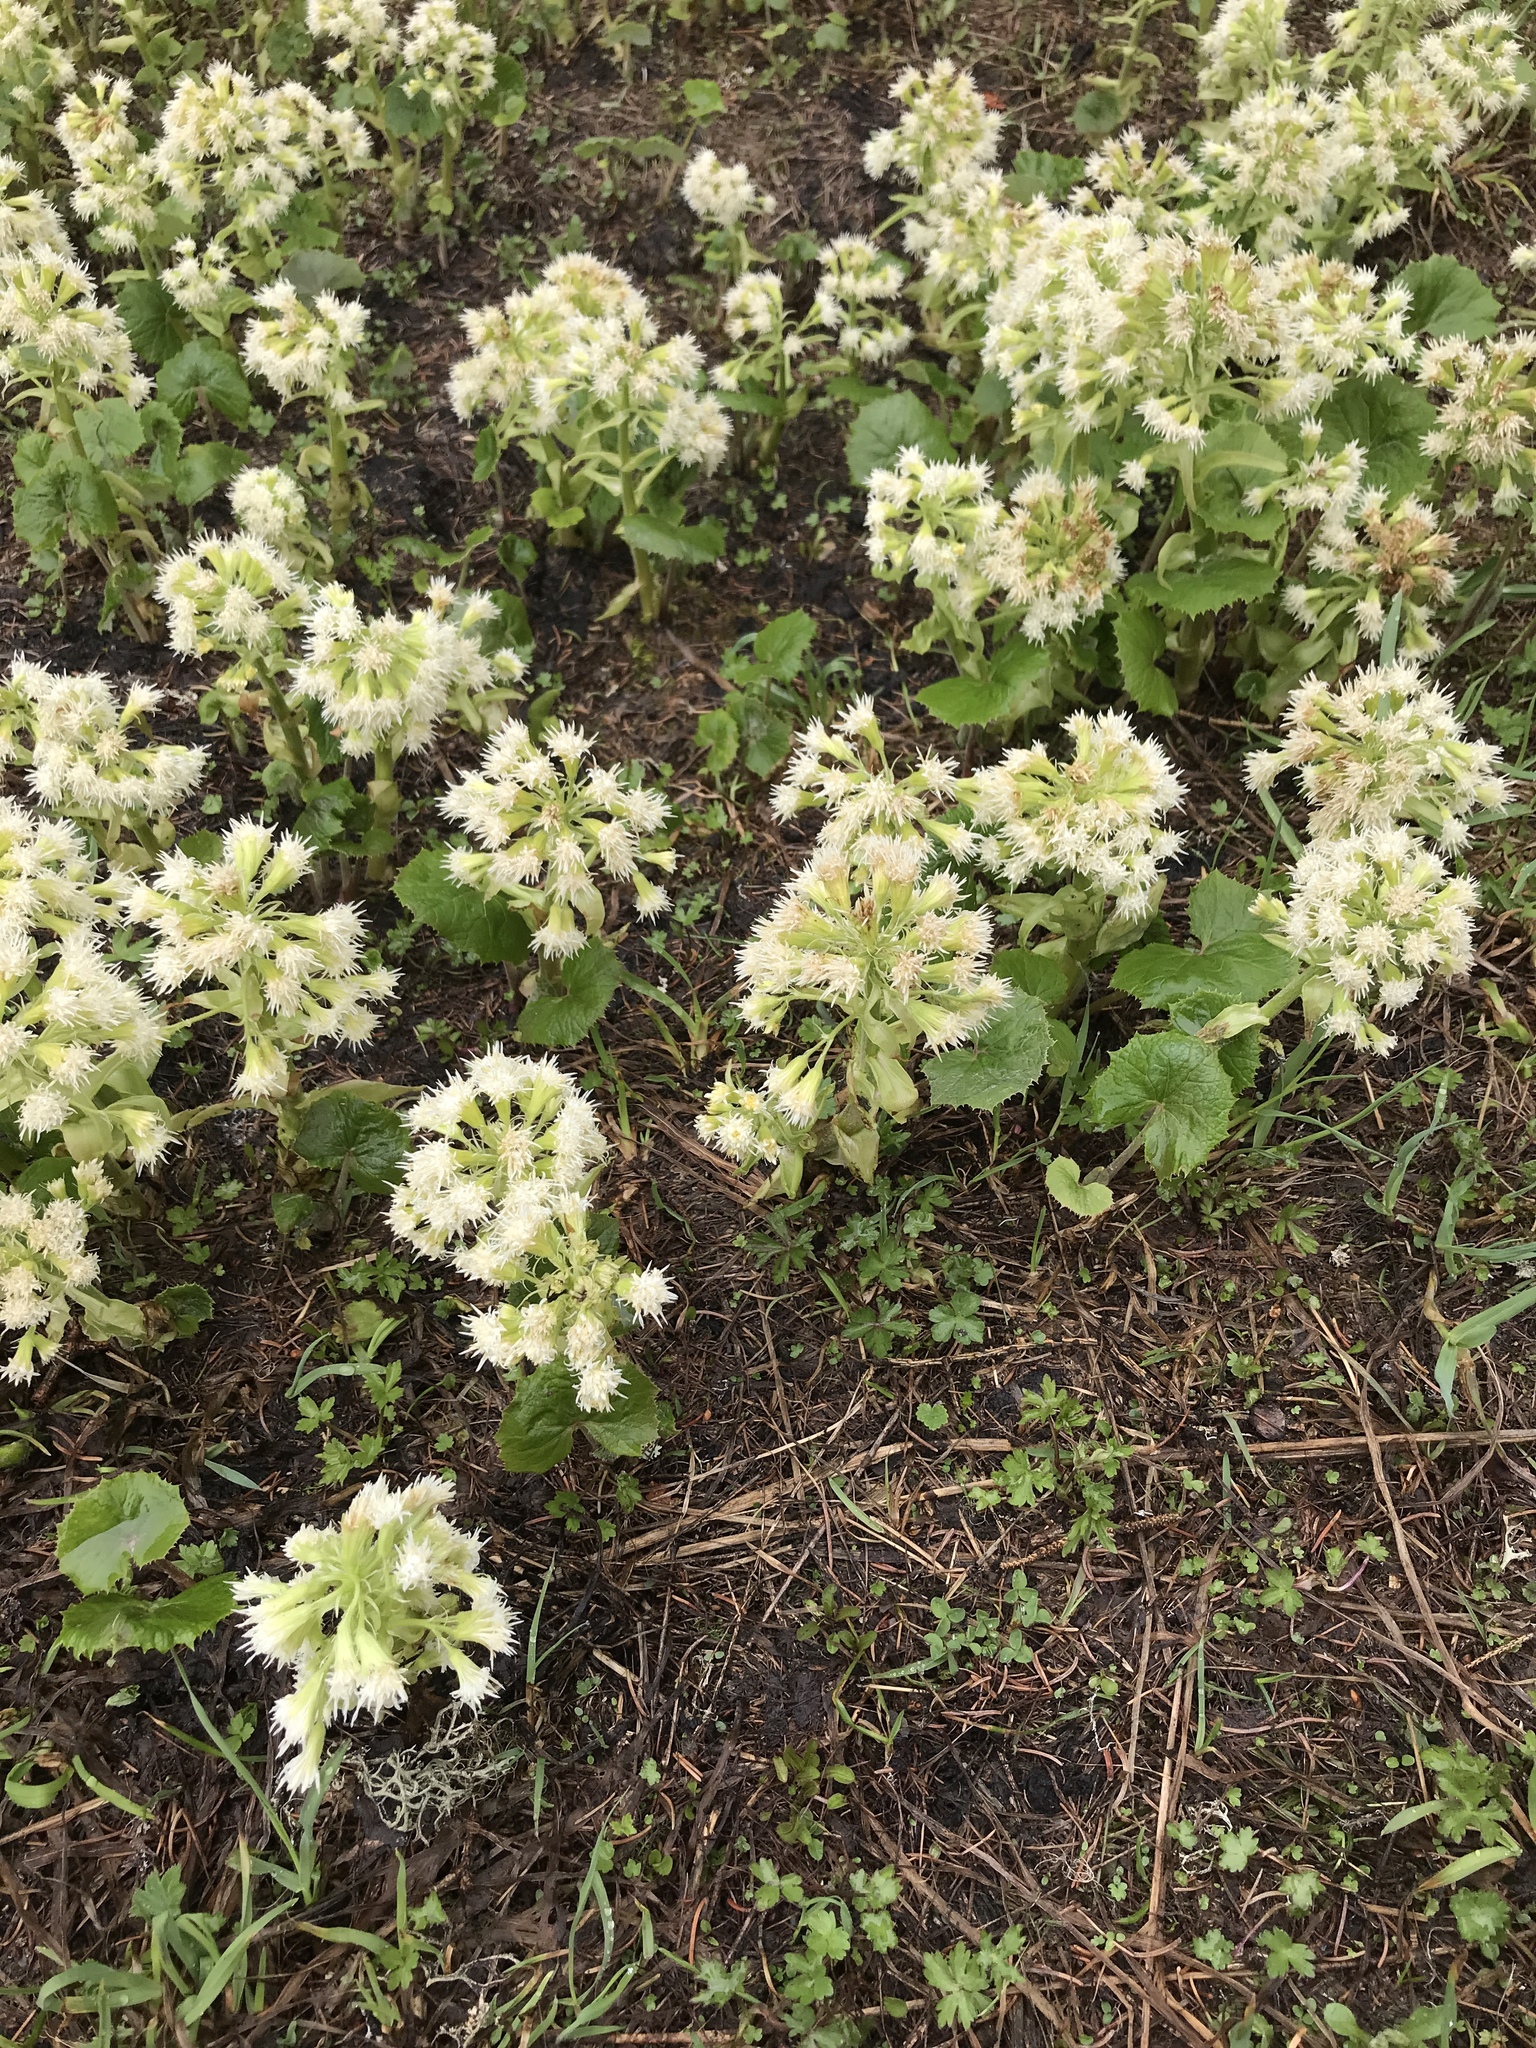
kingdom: Plantae
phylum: Tracheophyta
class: Magnoliopsida
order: Asterales
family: Asteraceae
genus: Petasites
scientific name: Petasites albus
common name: White butterbur
